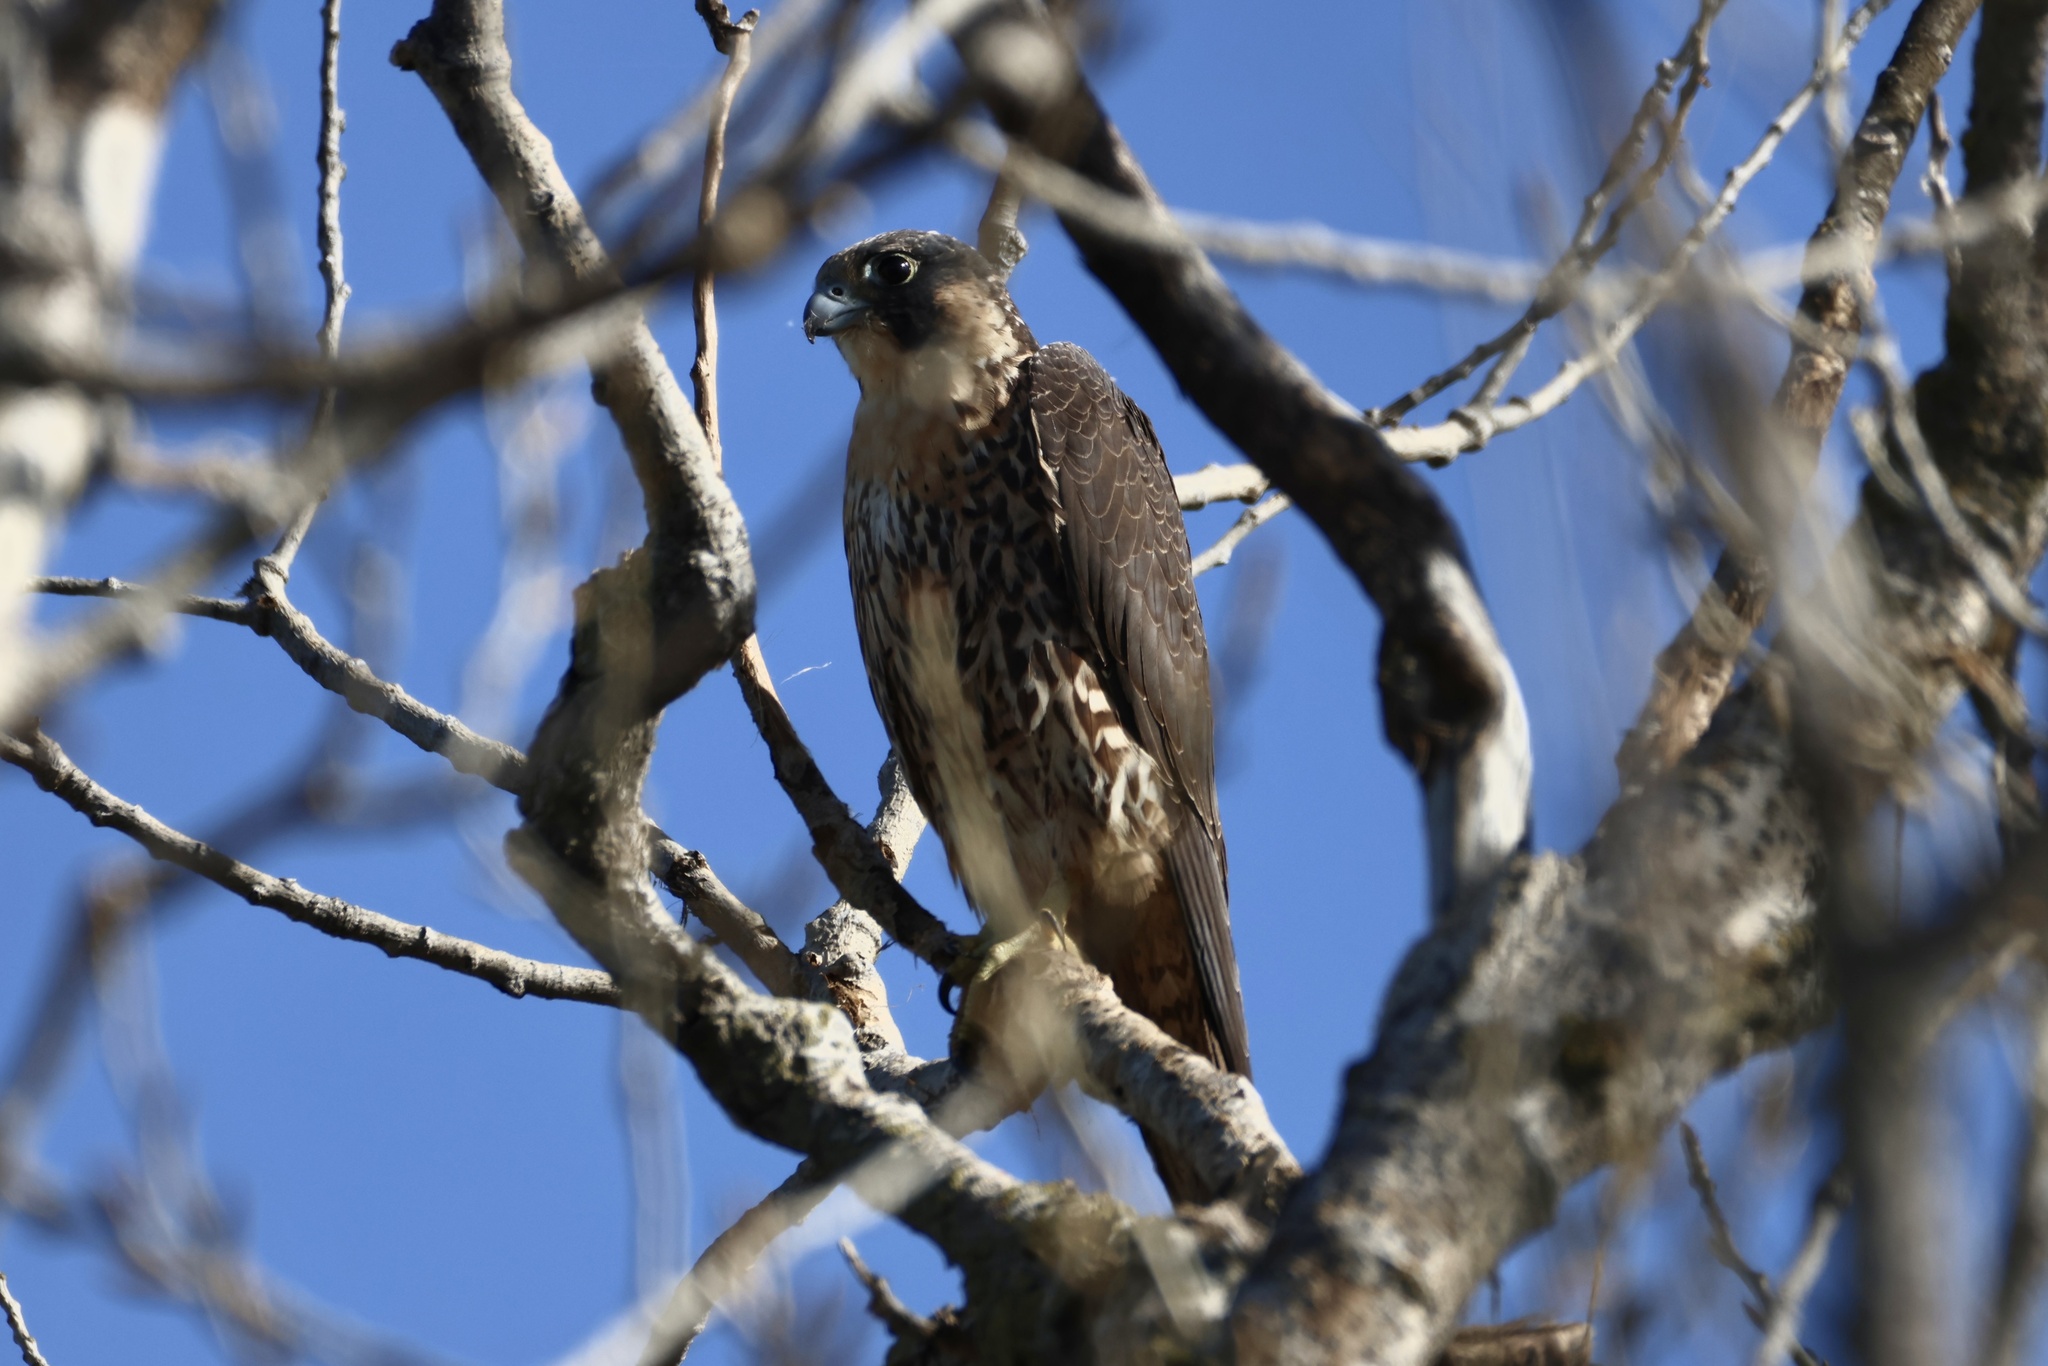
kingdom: Animalia
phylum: Chordata
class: Aves
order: Falconiformes
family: Falconidae
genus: Falco
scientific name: Falco peregrinus
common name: Peregrine falcon
